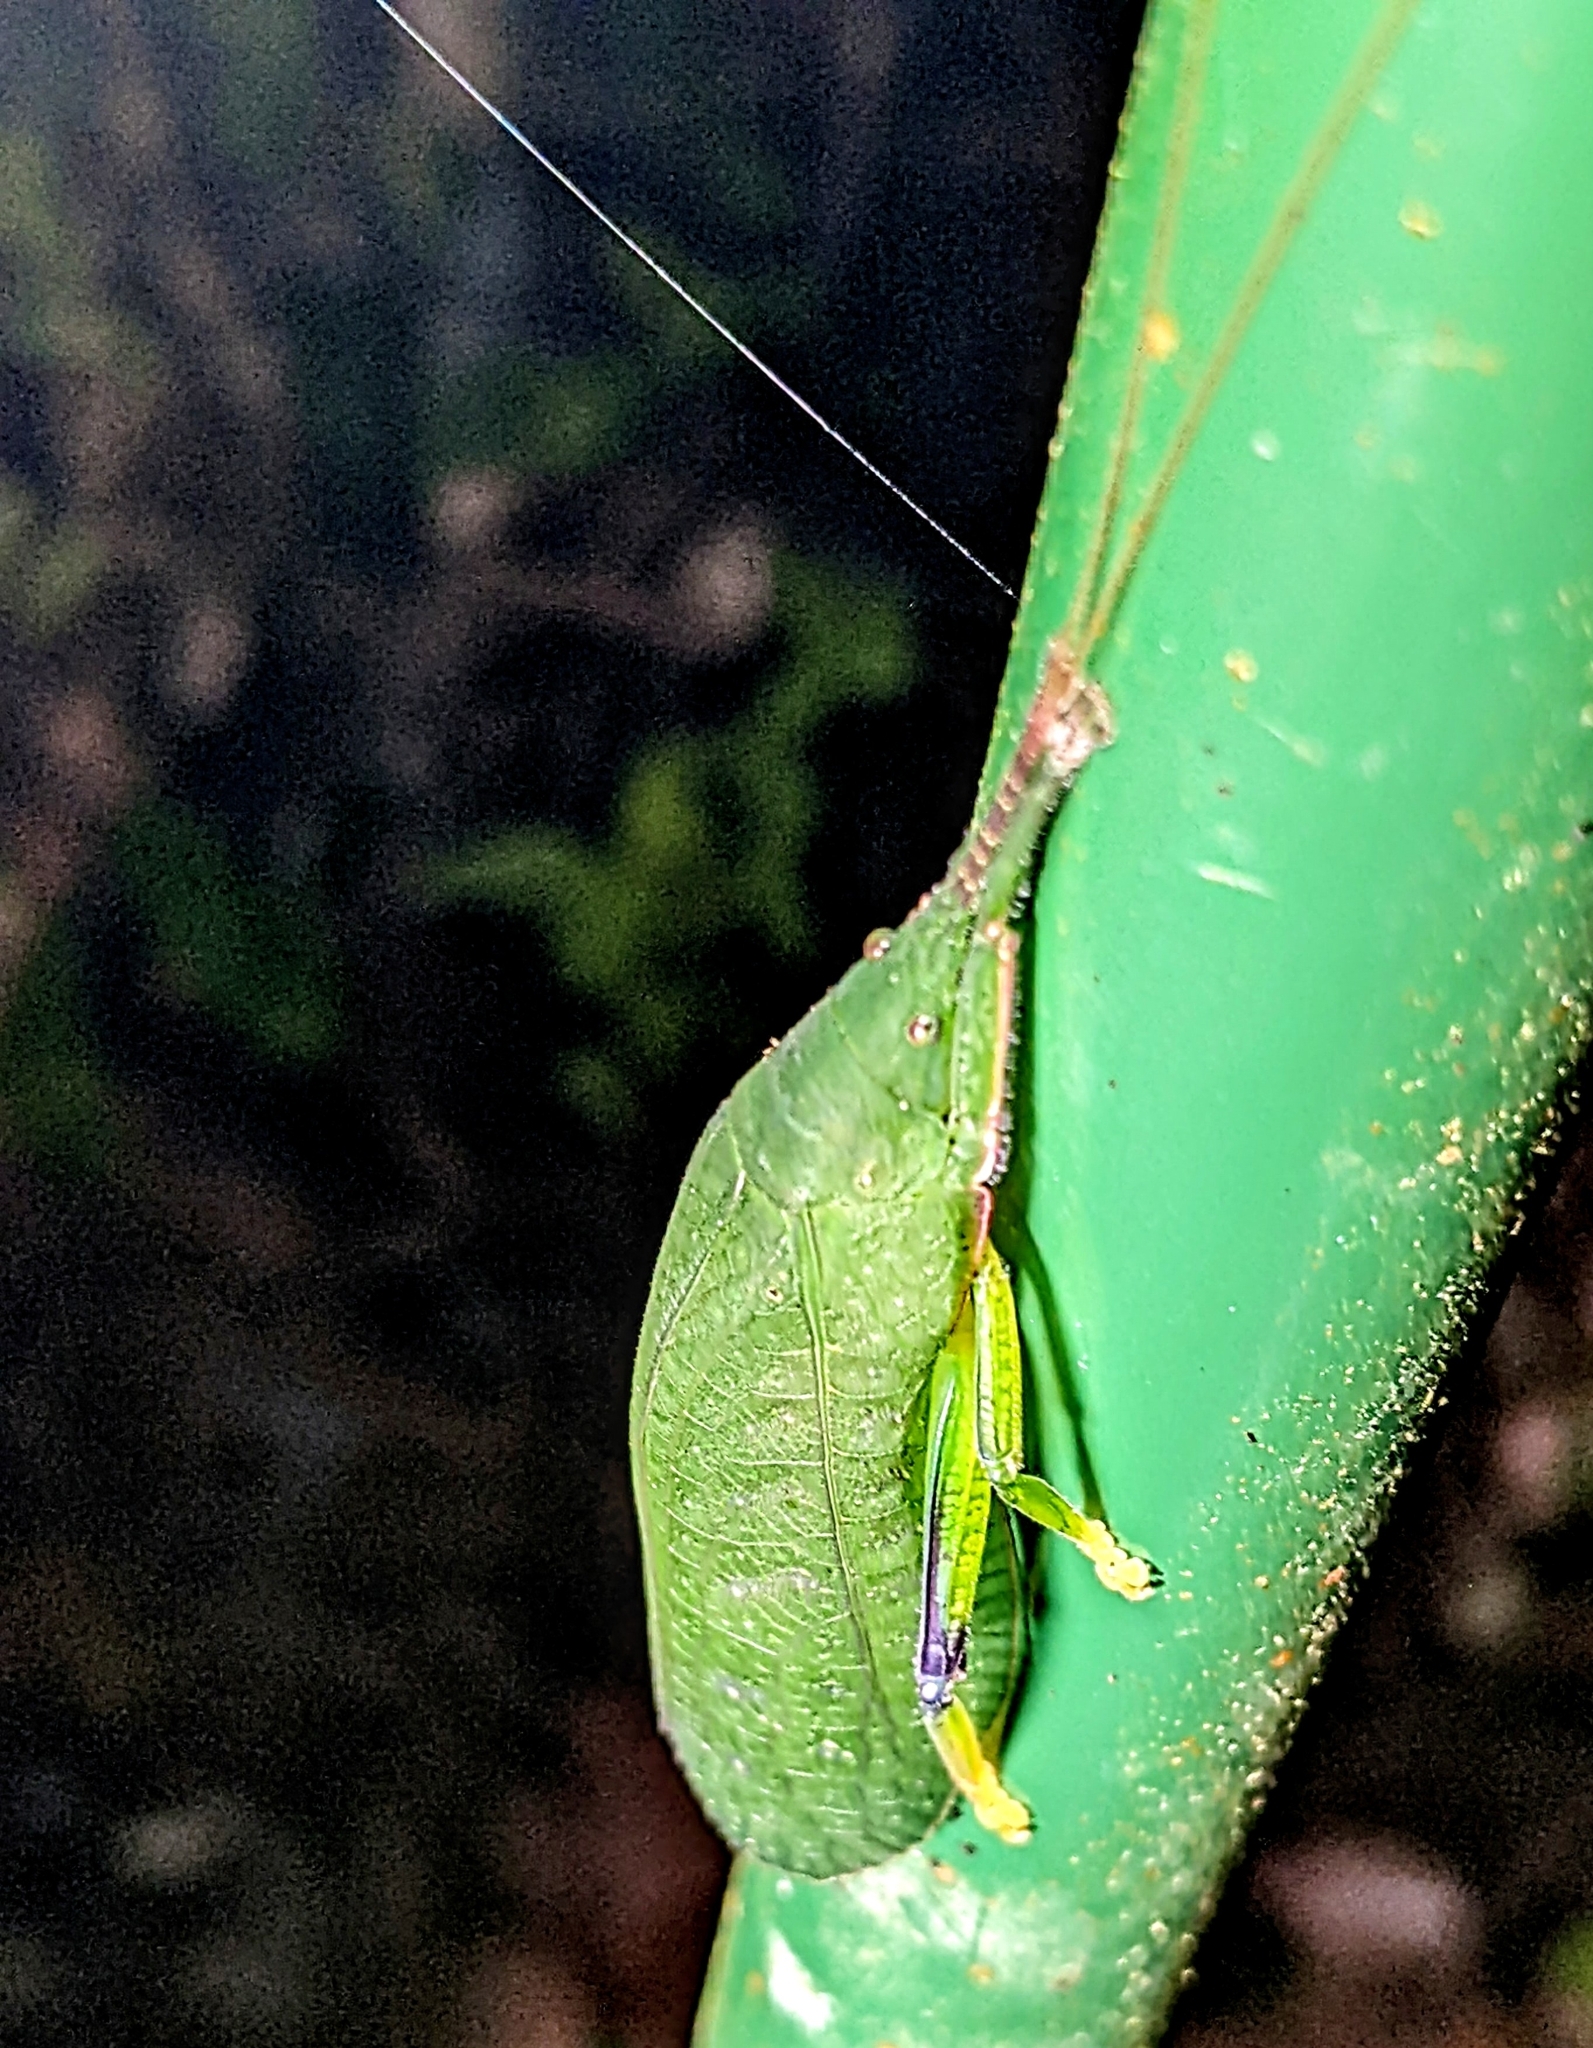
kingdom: Animalia
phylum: Arthropoda
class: Insecta
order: Orthoptera
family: Tettigoniidae
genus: Phyllomimus
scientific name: Phyllomimus inversus
